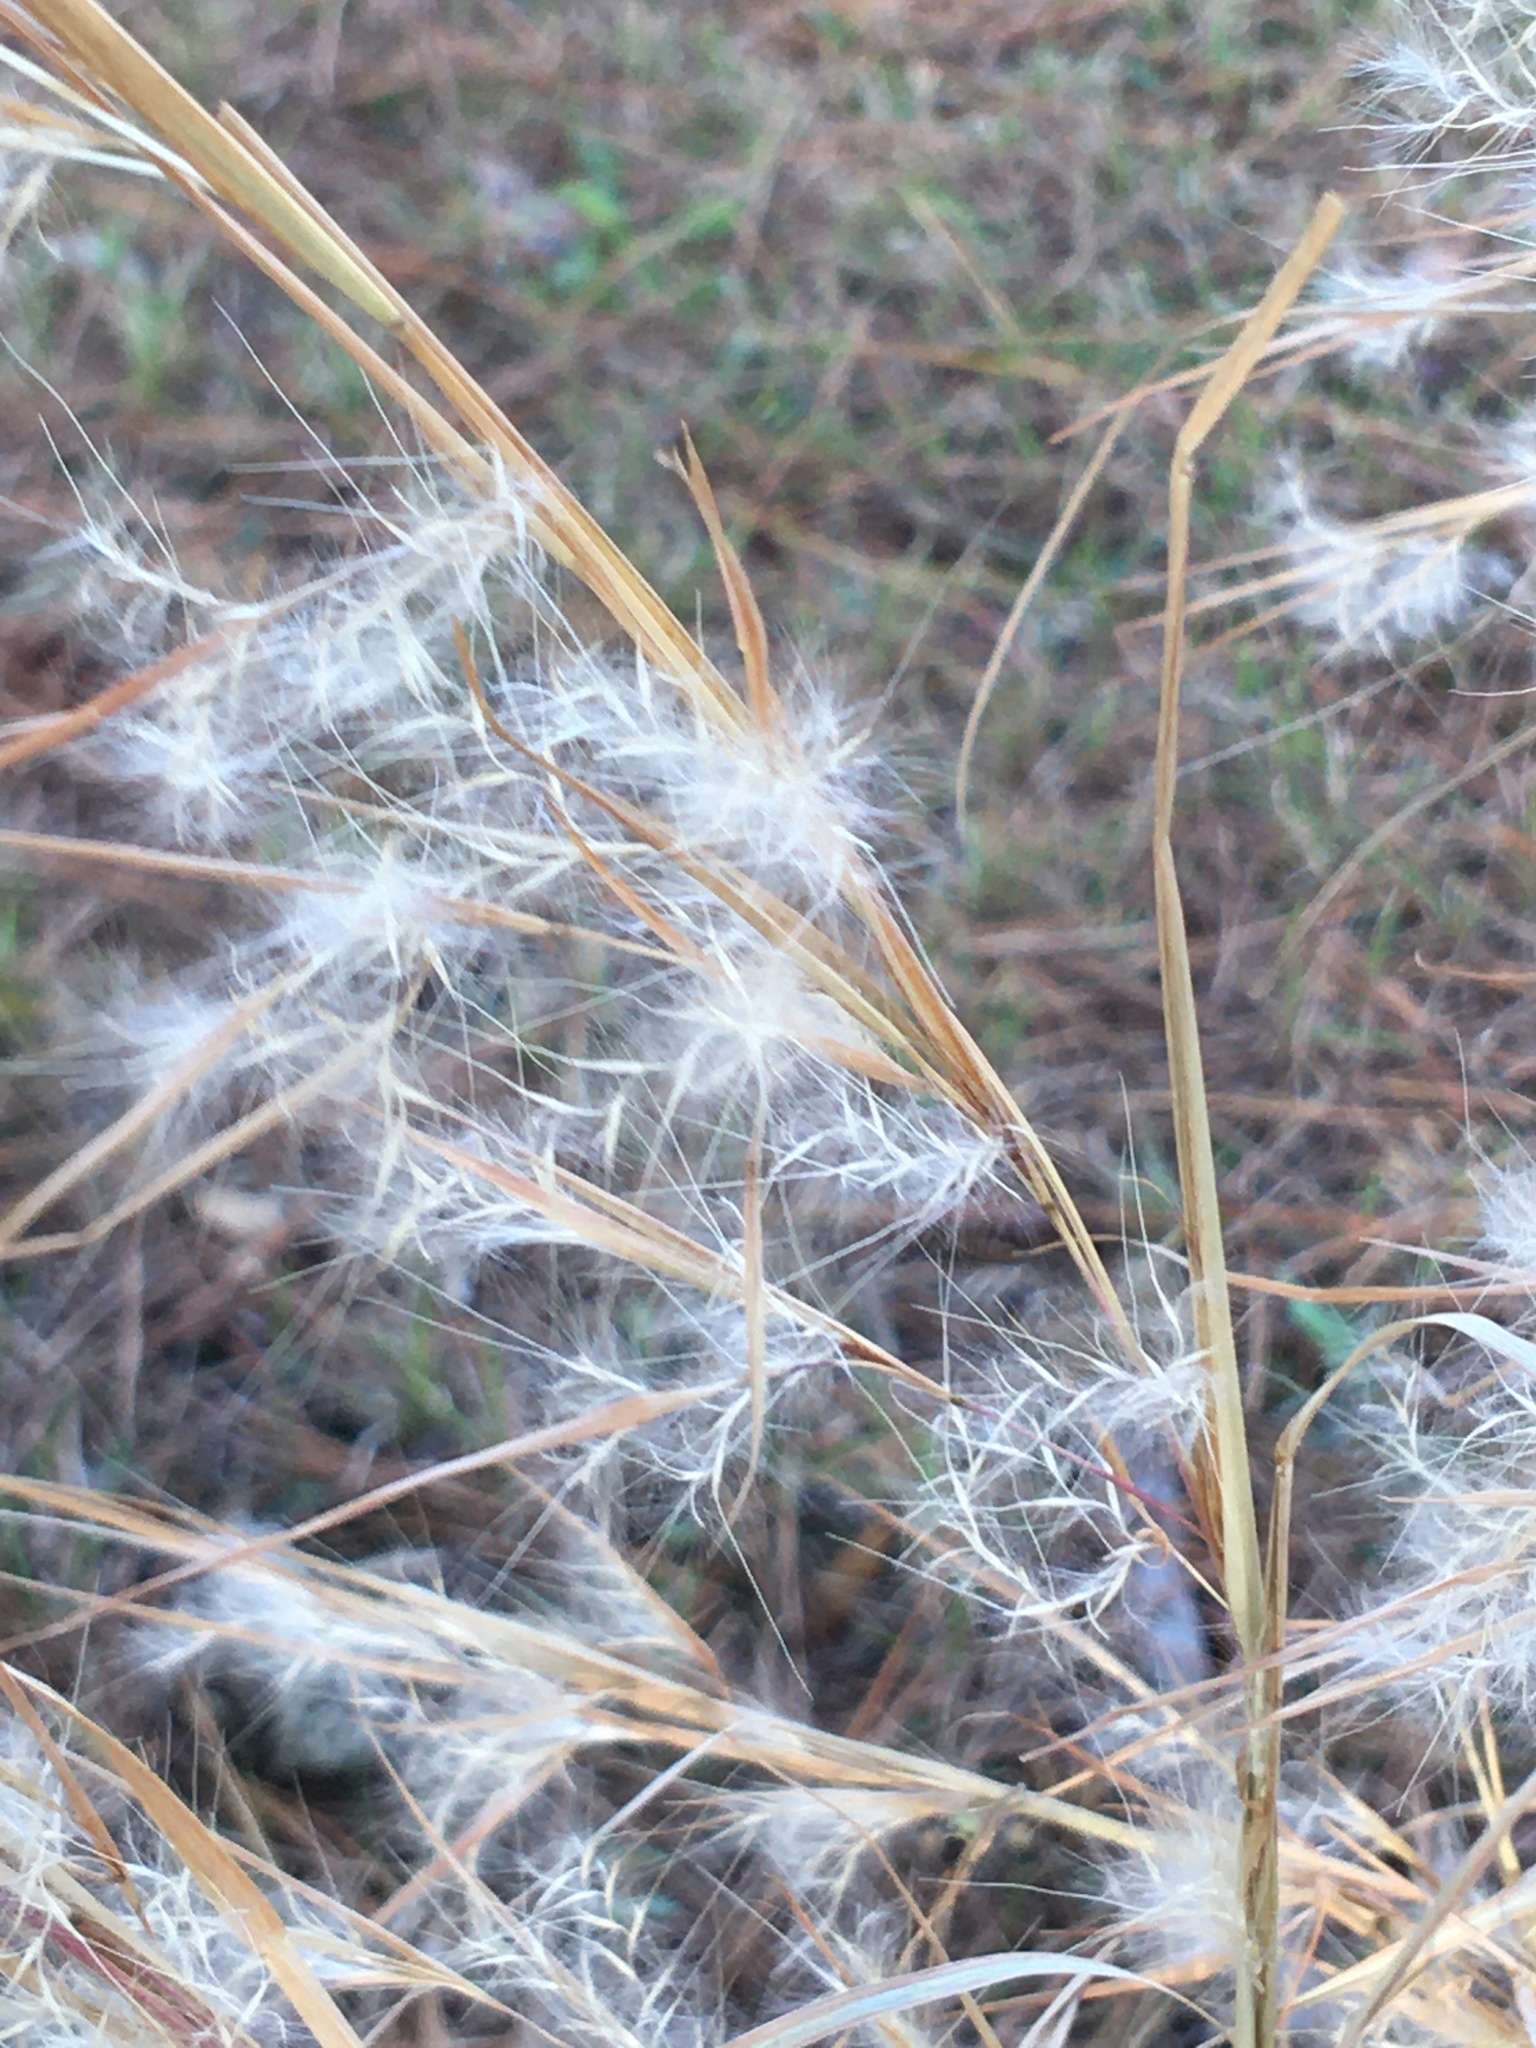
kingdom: Plantae
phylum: Tracheophyta
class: Liliopsida
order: Poales
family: Poaceae
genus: Andropogon
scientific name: Andropogon virginicus
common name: Broomsedge bluestem
